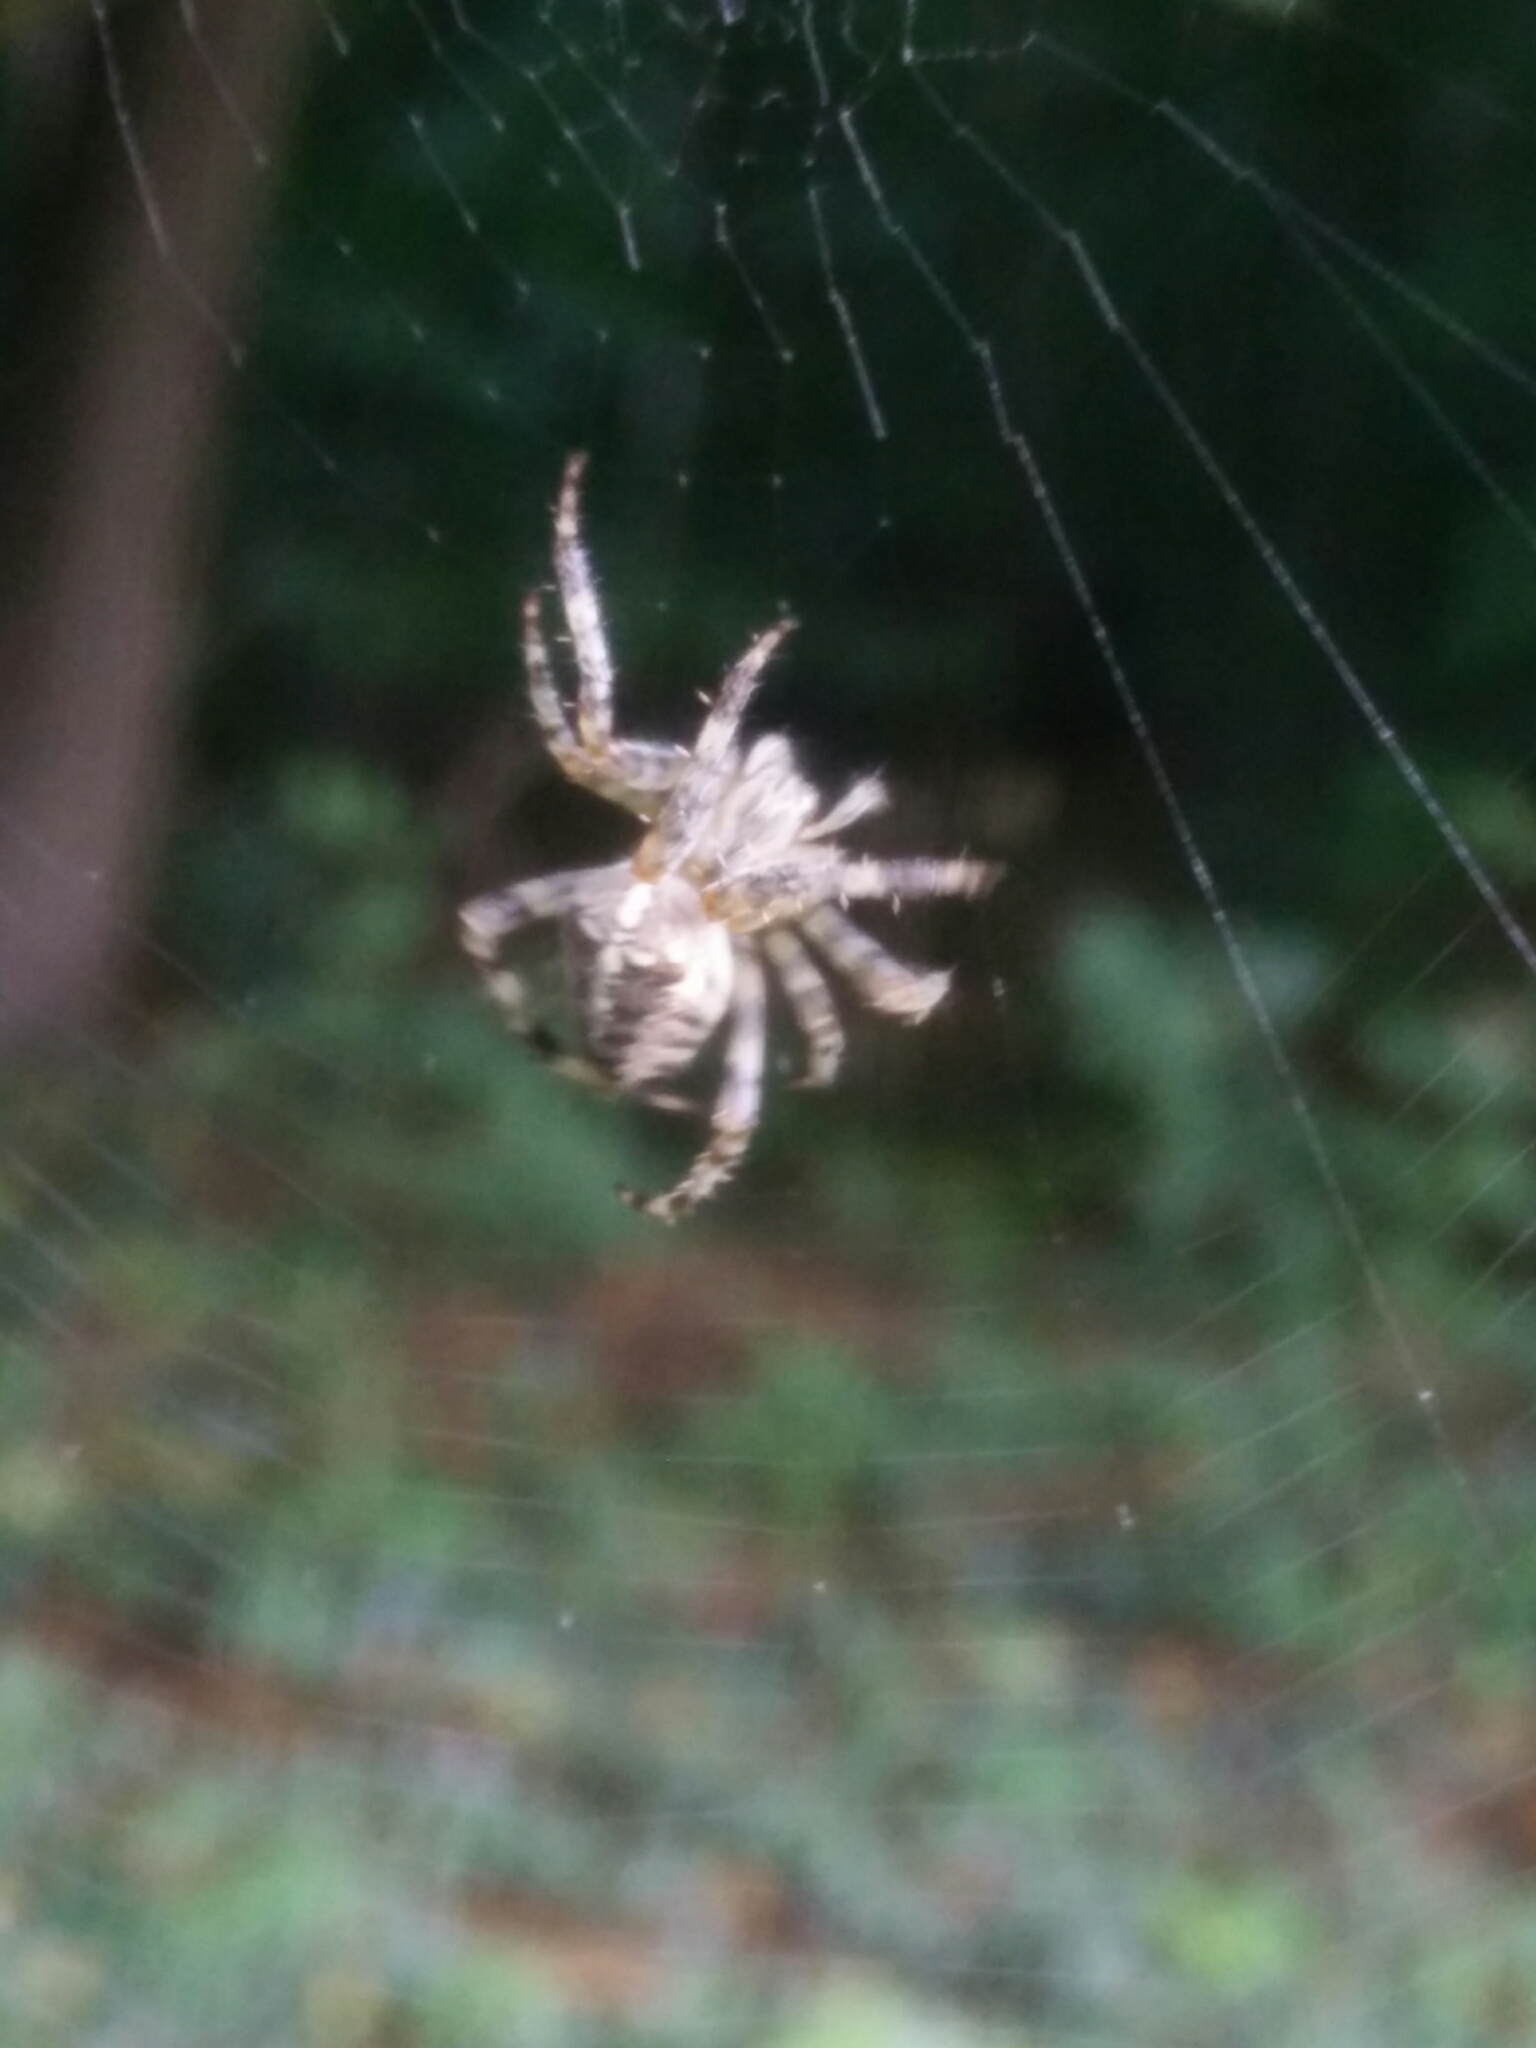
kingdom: Animalia
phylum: Arthropoda
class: Arachnida
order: Araneae
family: Araneidae
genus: Araneus
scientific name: Araneus diadematus
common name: Cross orbweaver
